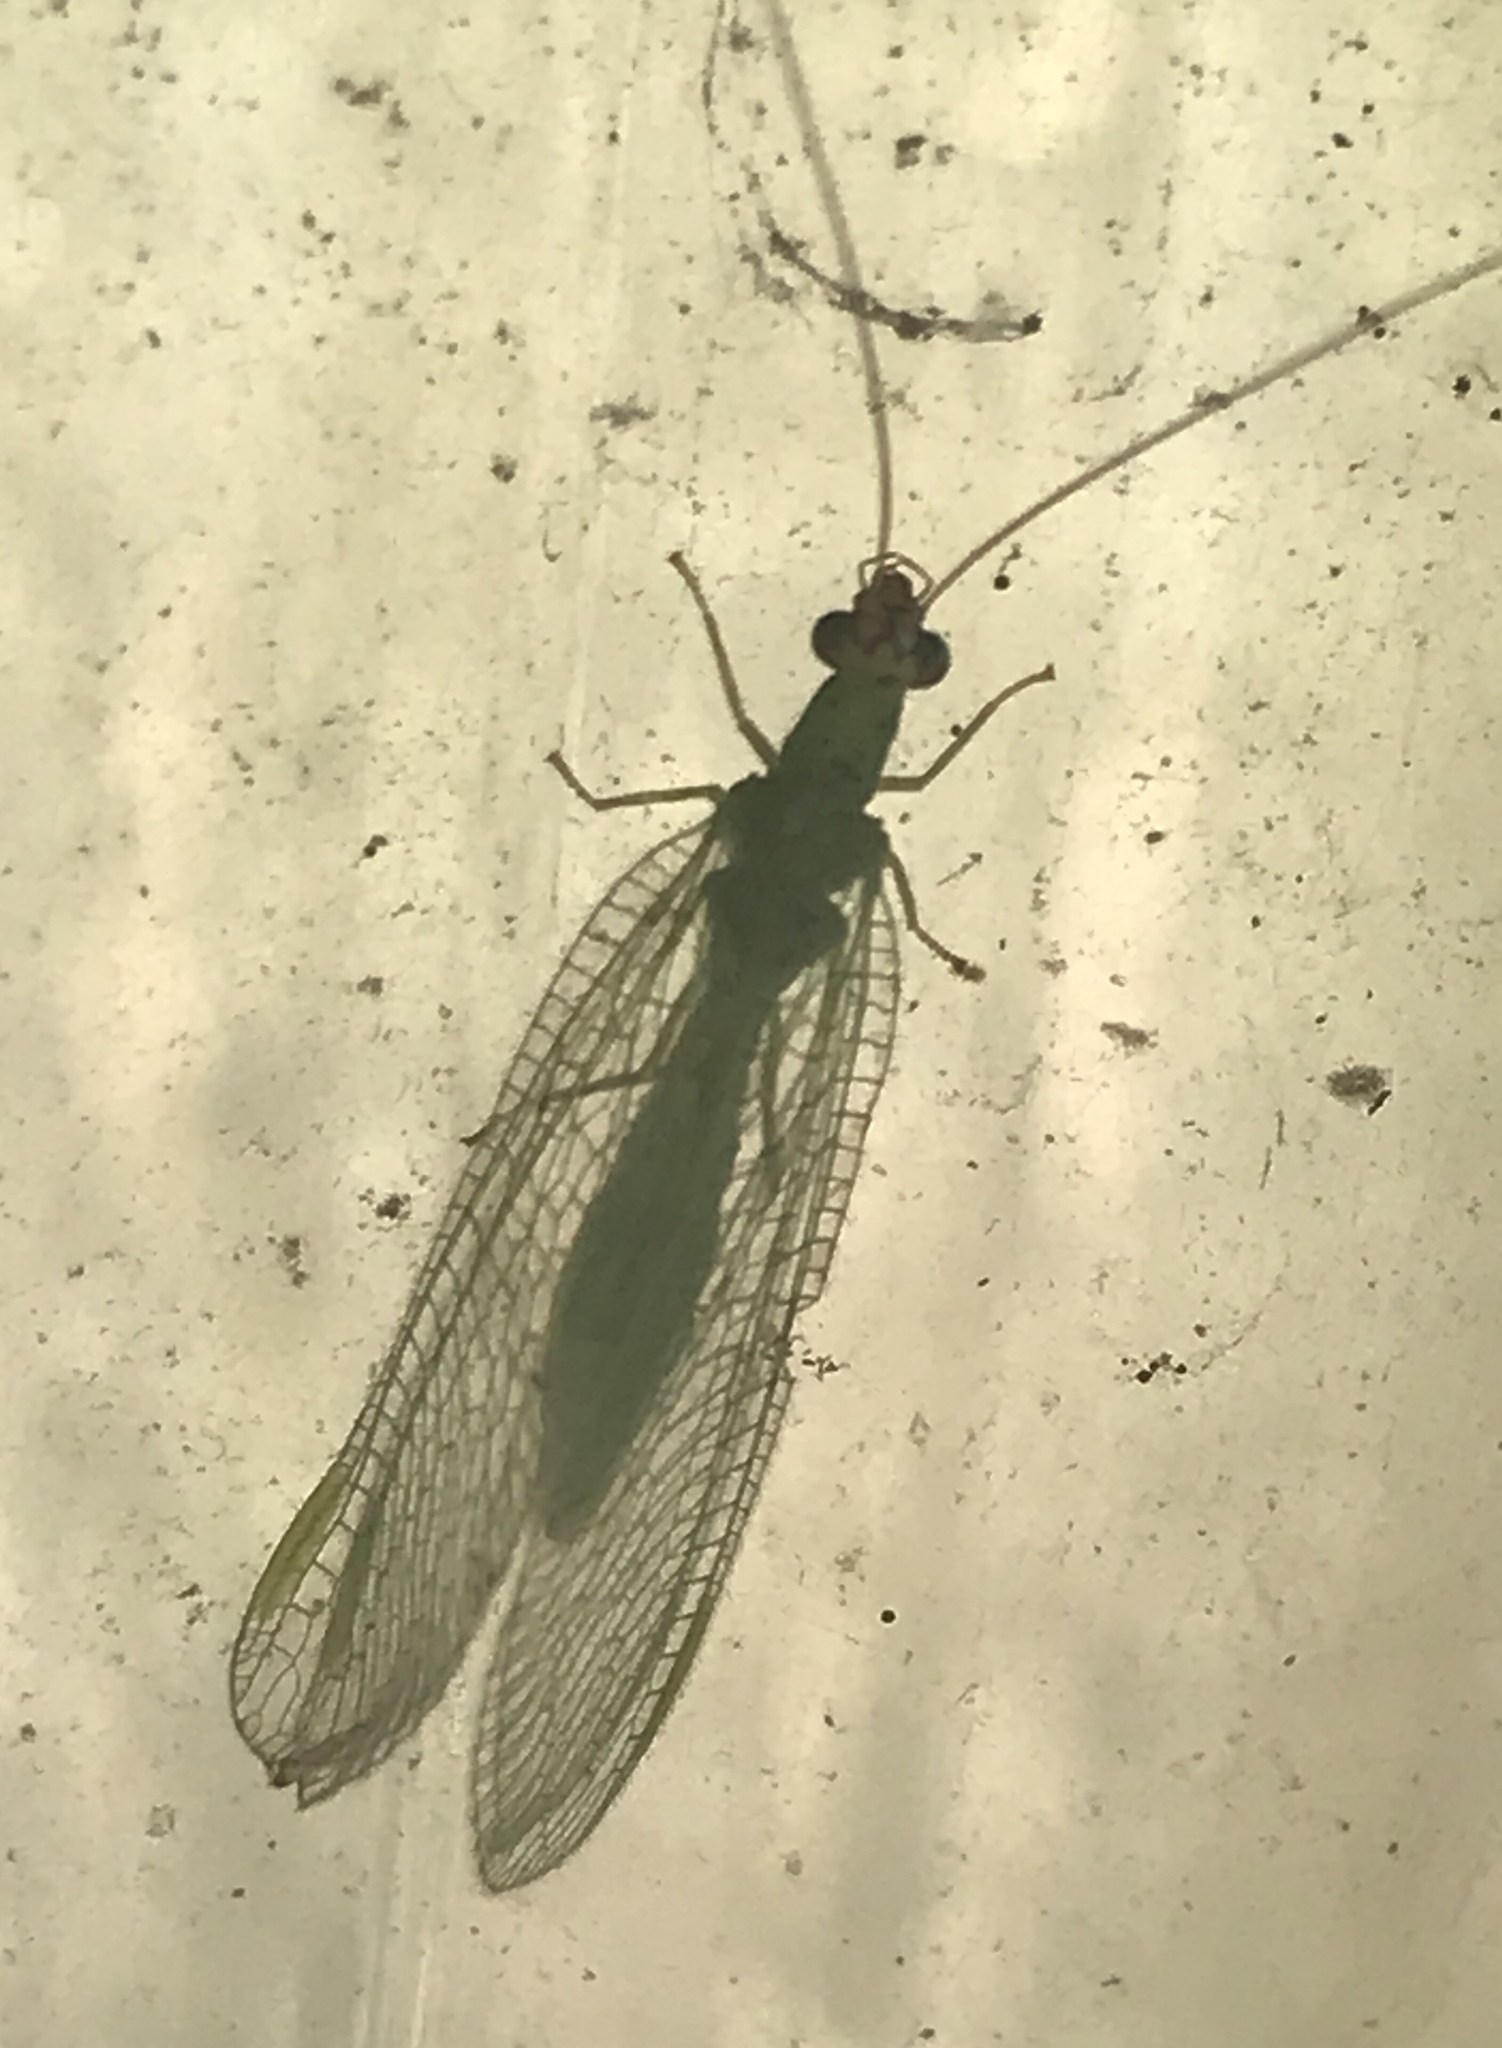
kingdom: Animalia
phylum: Arthropoda
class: Insecta
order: Neuroptera
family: Chrysopidae
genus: Chrysopa
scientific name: Chrysopa oculata
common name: Golden-eyed lacewing
